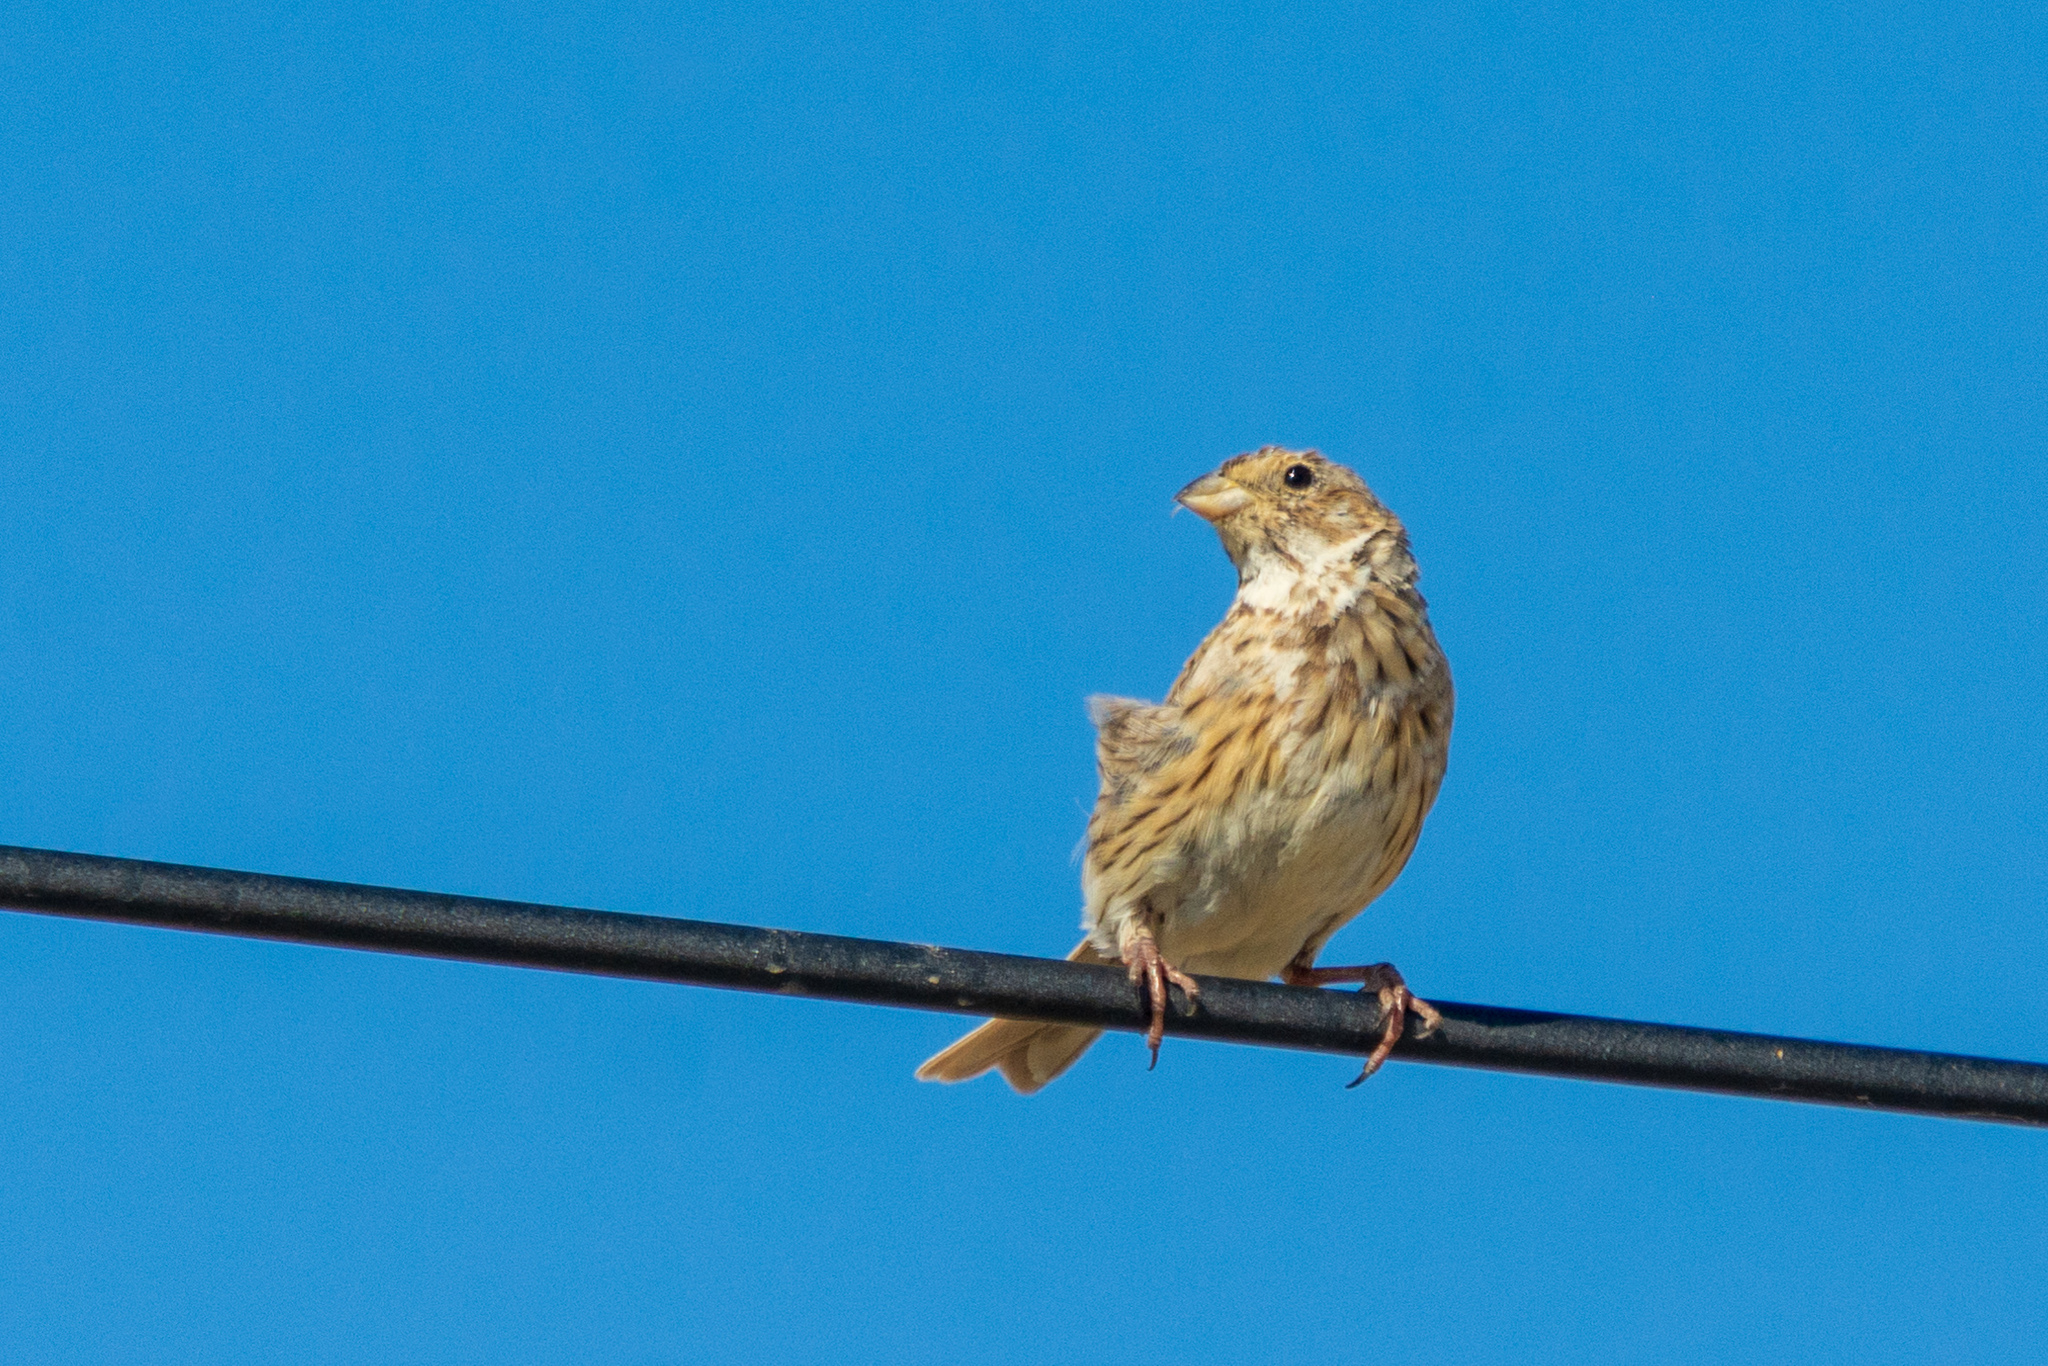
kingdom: Animalia
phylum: Chordata
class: Aves
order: Passeriformes
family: Emberizidae
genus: Emberiza
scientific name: Emberiza calandra
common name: Corn bunting
